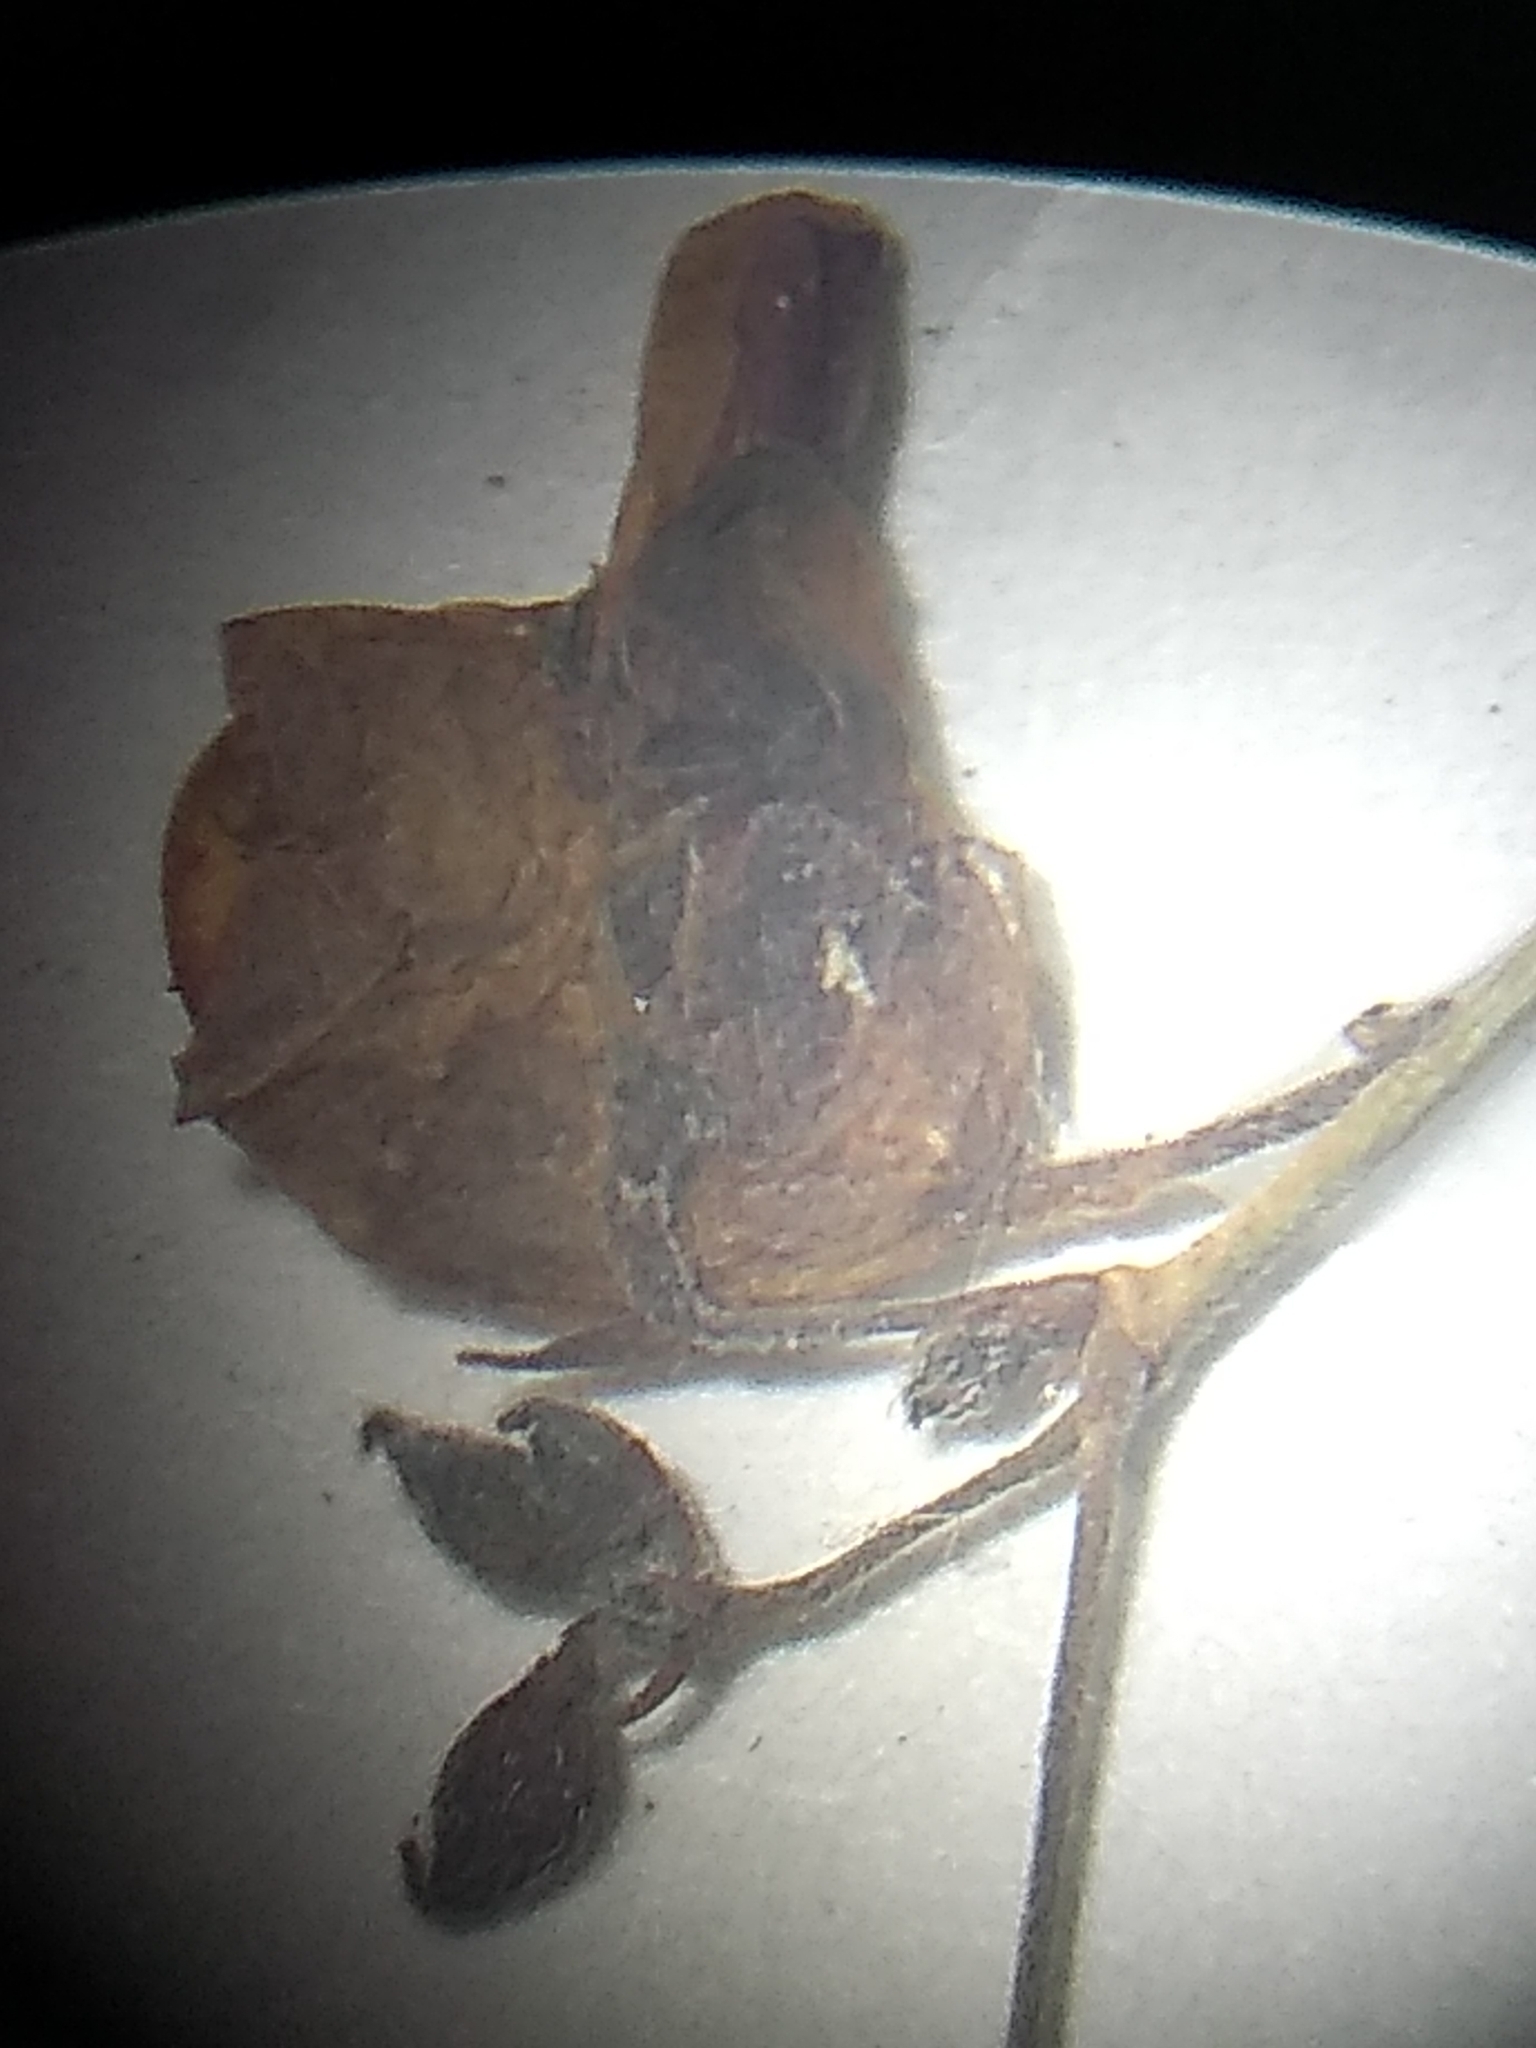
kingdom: Plantae
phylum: Tracheophyta
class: Magnoliopsida
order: Fabales
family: Fabaceae
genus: Desmodium
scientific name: Desmodium paniculatum
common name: Panicled tick-clover
